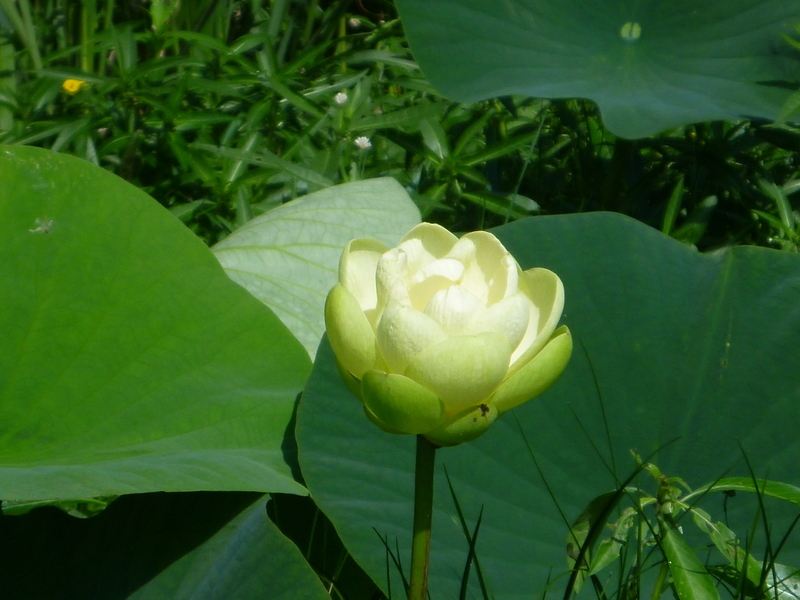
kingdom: Plantae
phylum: Tracheophyta
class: Magnoliopsida
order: Proteales
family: Nelumbonaceae
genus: Nelumbo
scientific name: Nelumbo lutea
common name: American lotus
